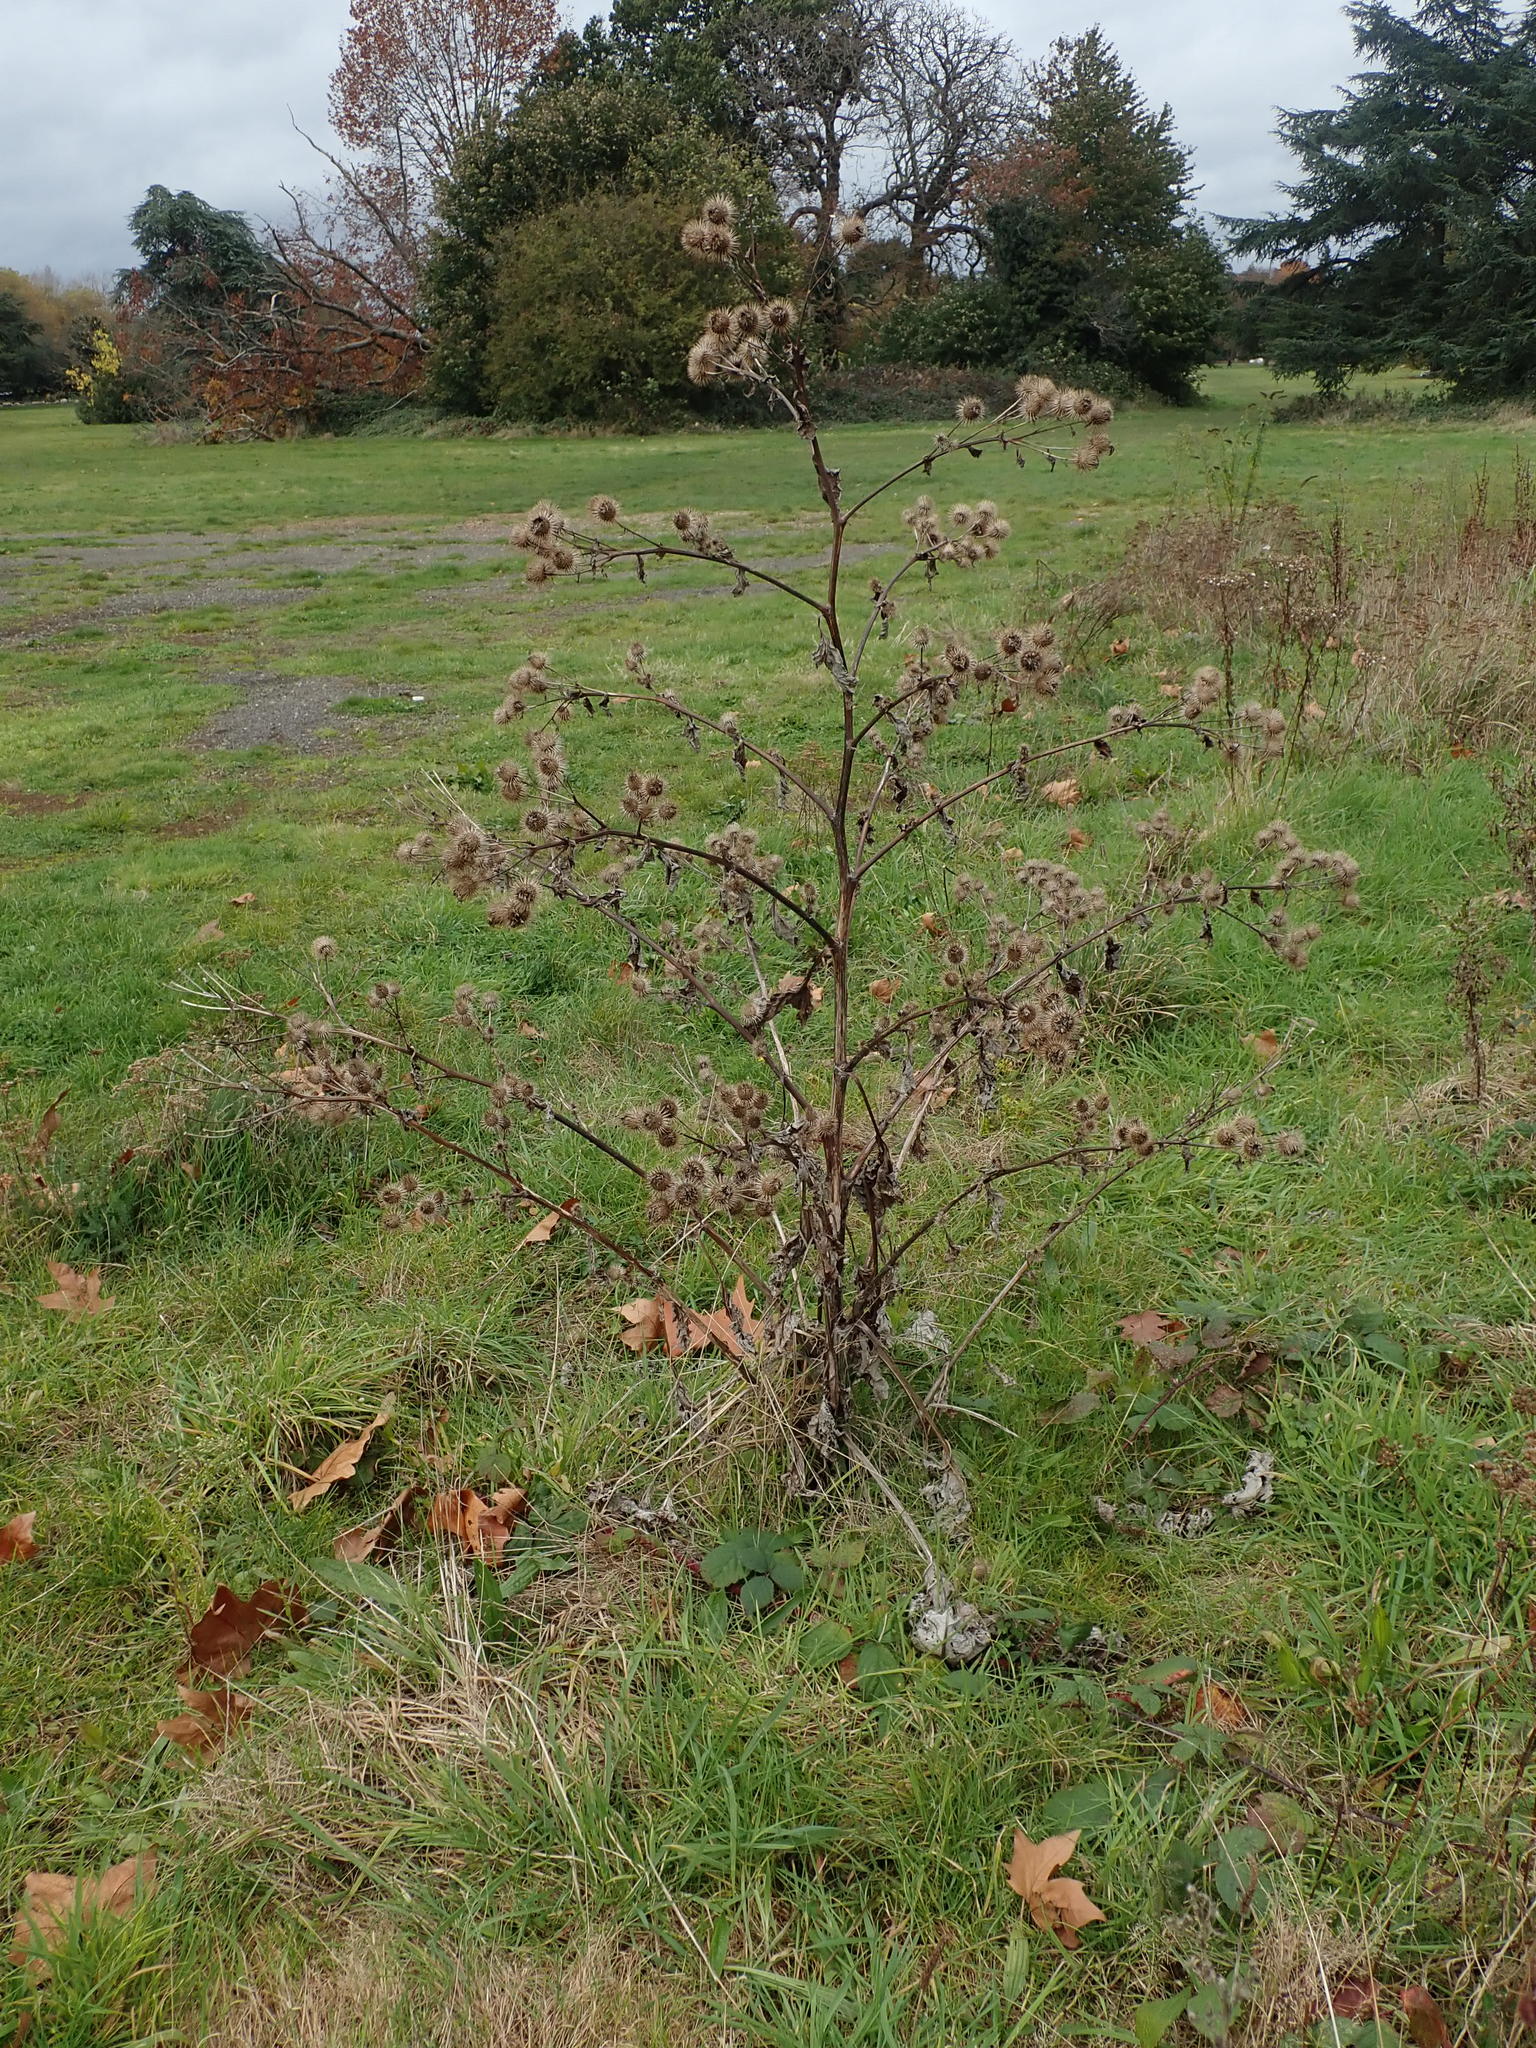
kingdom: Plantae
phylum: Tracheophyta
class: Magnoliopsida
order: Asterales
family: Asteraceae
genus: Arctium
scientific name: Arctium lappa
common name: Greater burdock
